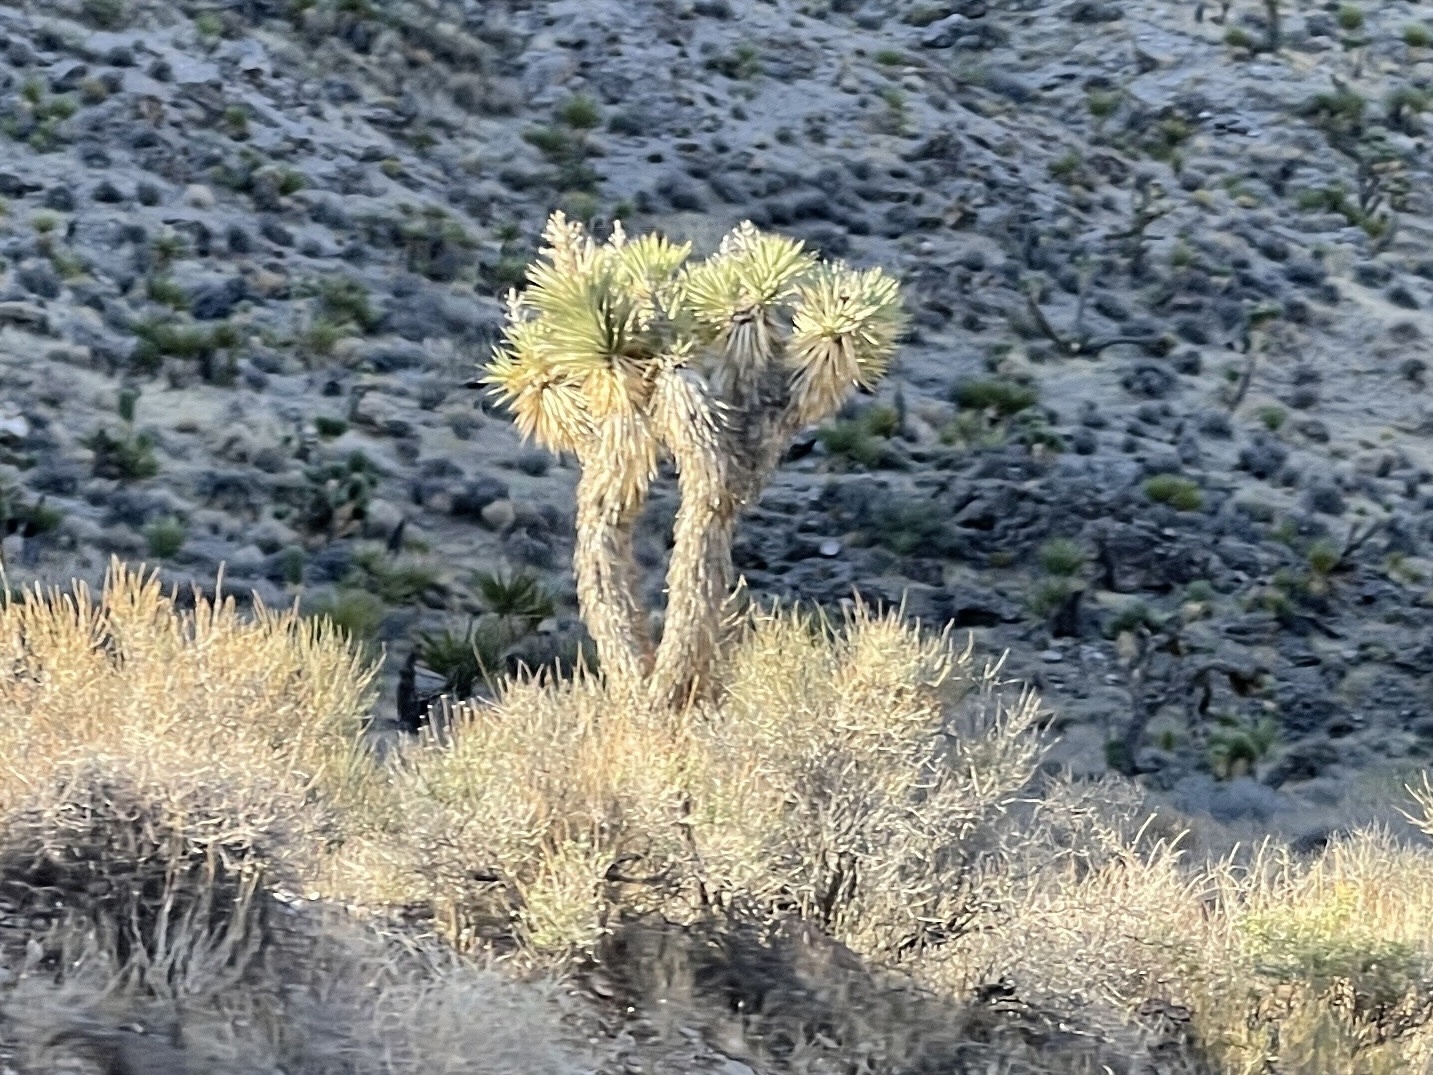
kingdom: Plantae
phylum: Tracheophyta
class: Liliopsida
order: Asparagales
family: Asparagaceae
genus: Yucca
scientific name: Yucca brevifolia
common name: Joshua tree
